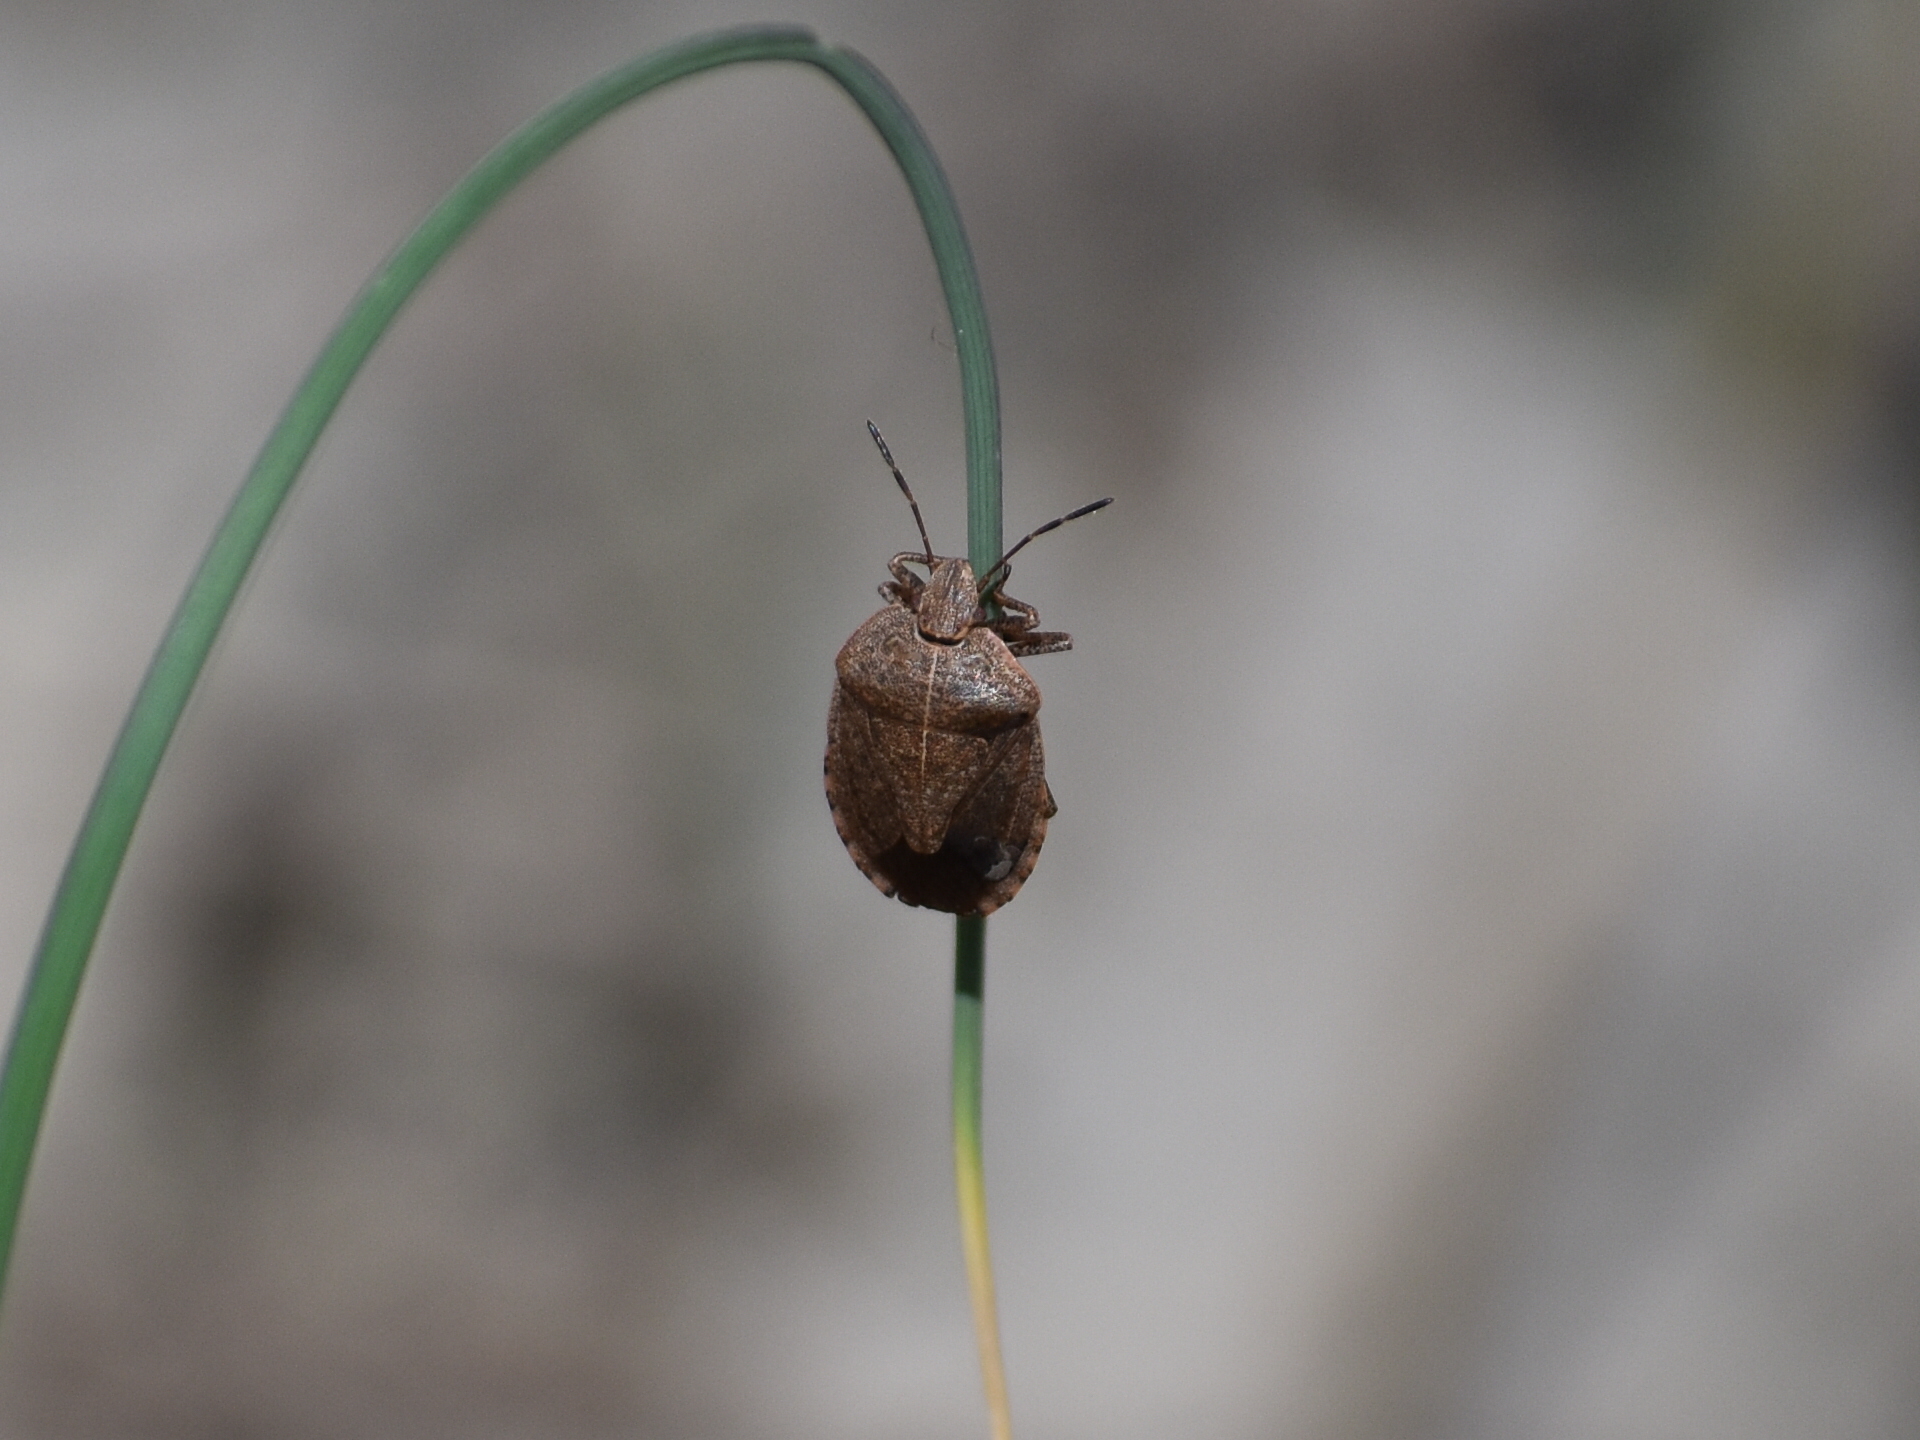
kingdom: Animalia
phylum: Arthropoda
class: Insecta
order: Hemiptera
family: Pentatomidae
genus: Menecles
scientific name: Menecles insertus
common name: Elf shoe stink bug
